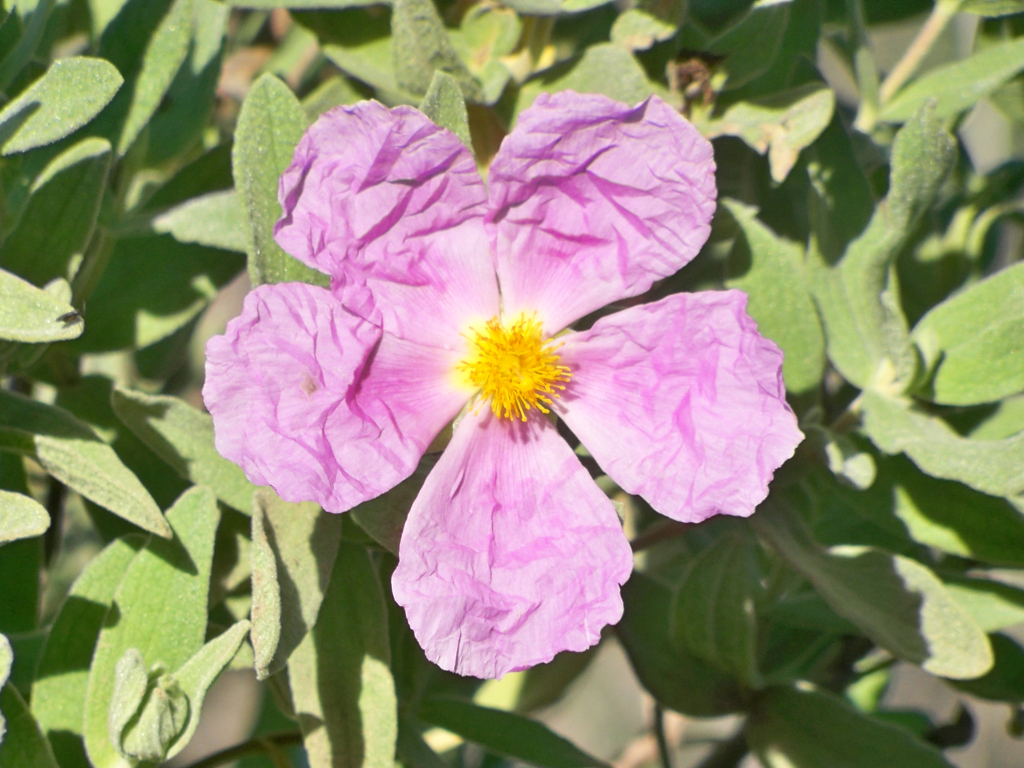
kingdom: Plantae
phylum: Tracheophyta
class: Magnoliopsida
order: Malvales
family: Cistaceae
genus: Cistus
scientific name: Cistus albidus
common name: White-leaf rock-rose
